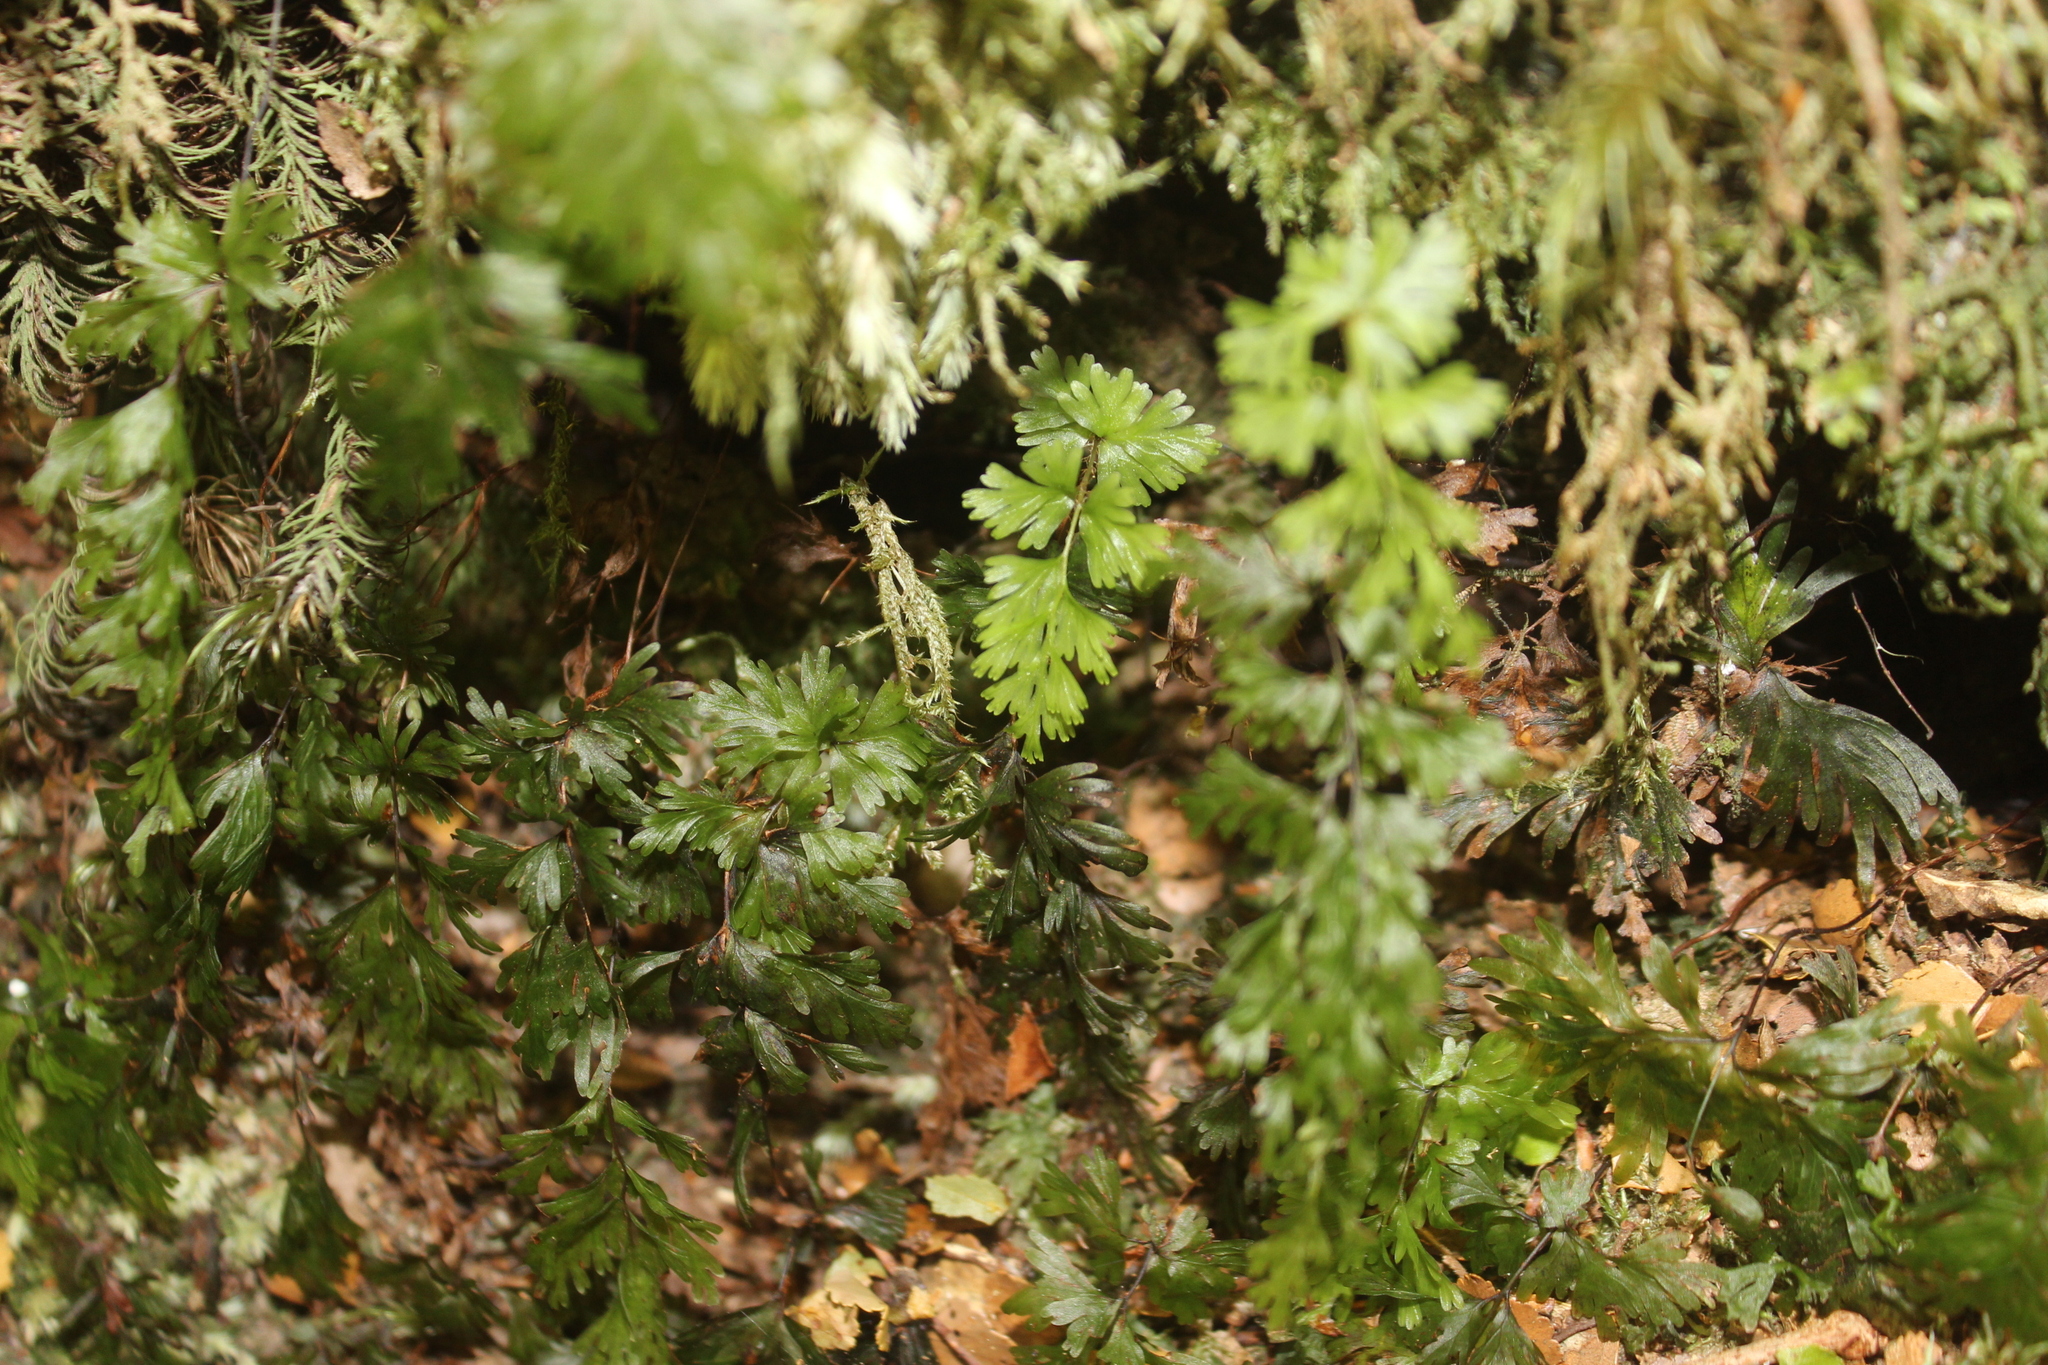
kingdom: Plantae
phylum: Tracheophyta
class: Polypodiopsida
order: Hymenophyllales
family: Hymenophyllaceae
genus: Hymenophyllum
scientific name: Hymenophyllum flabellatum
